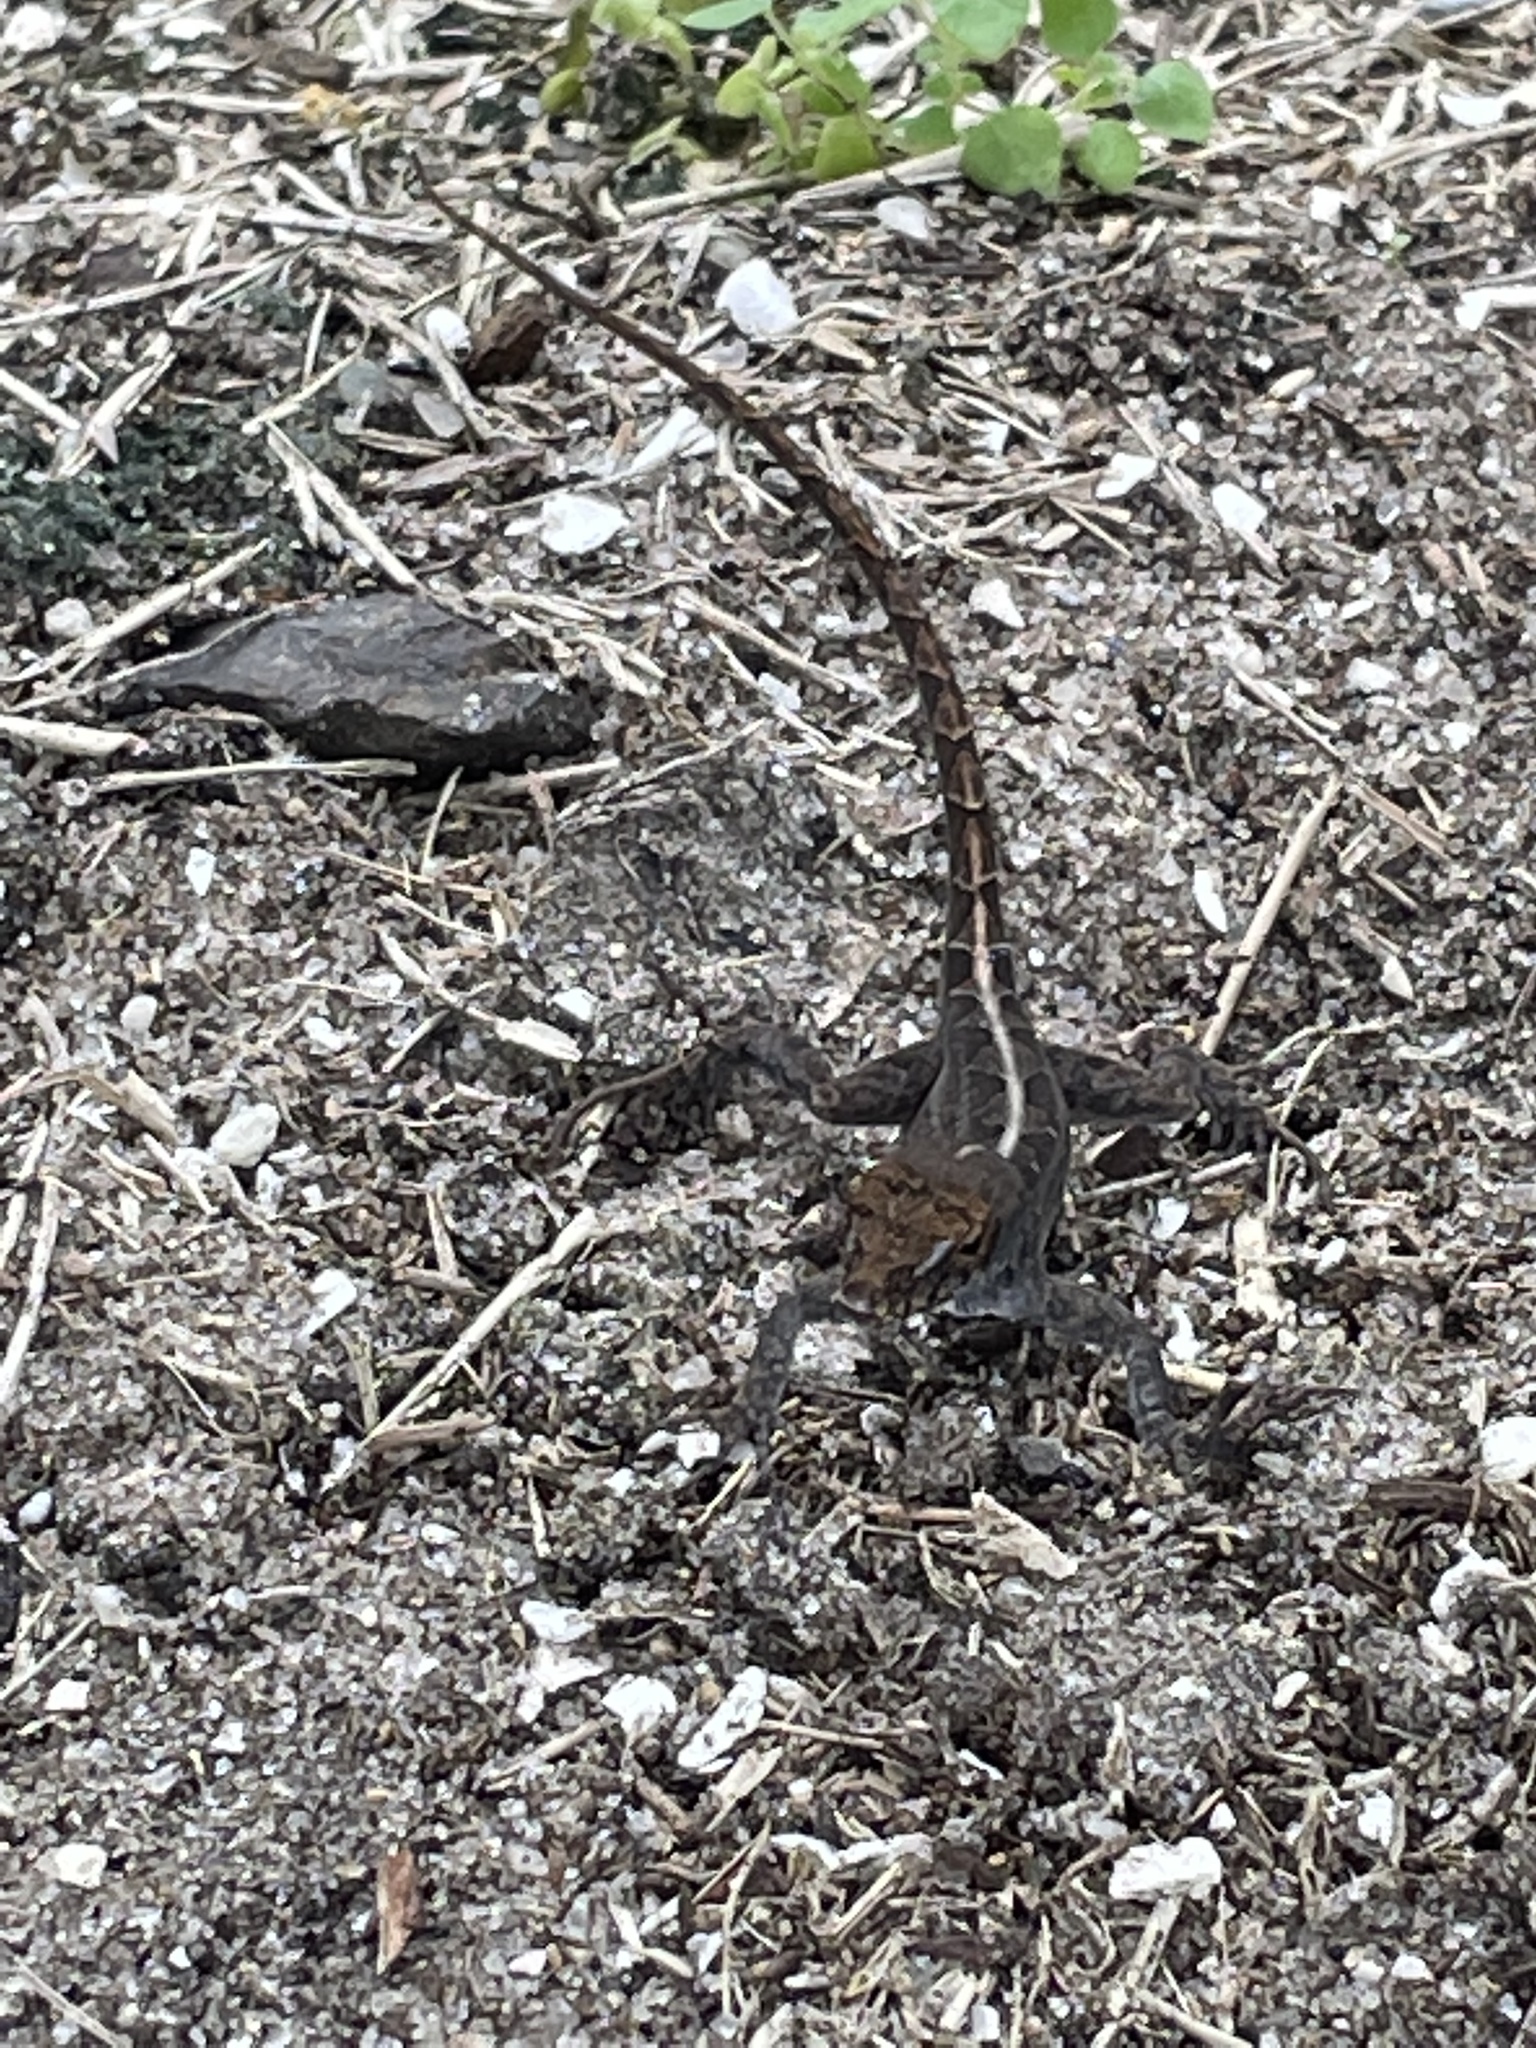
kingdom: Animalia
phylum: Chordata
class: Squamata
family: Dactyloidae
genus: Anolis
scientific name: Anolis sagrei
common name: Brown anole
